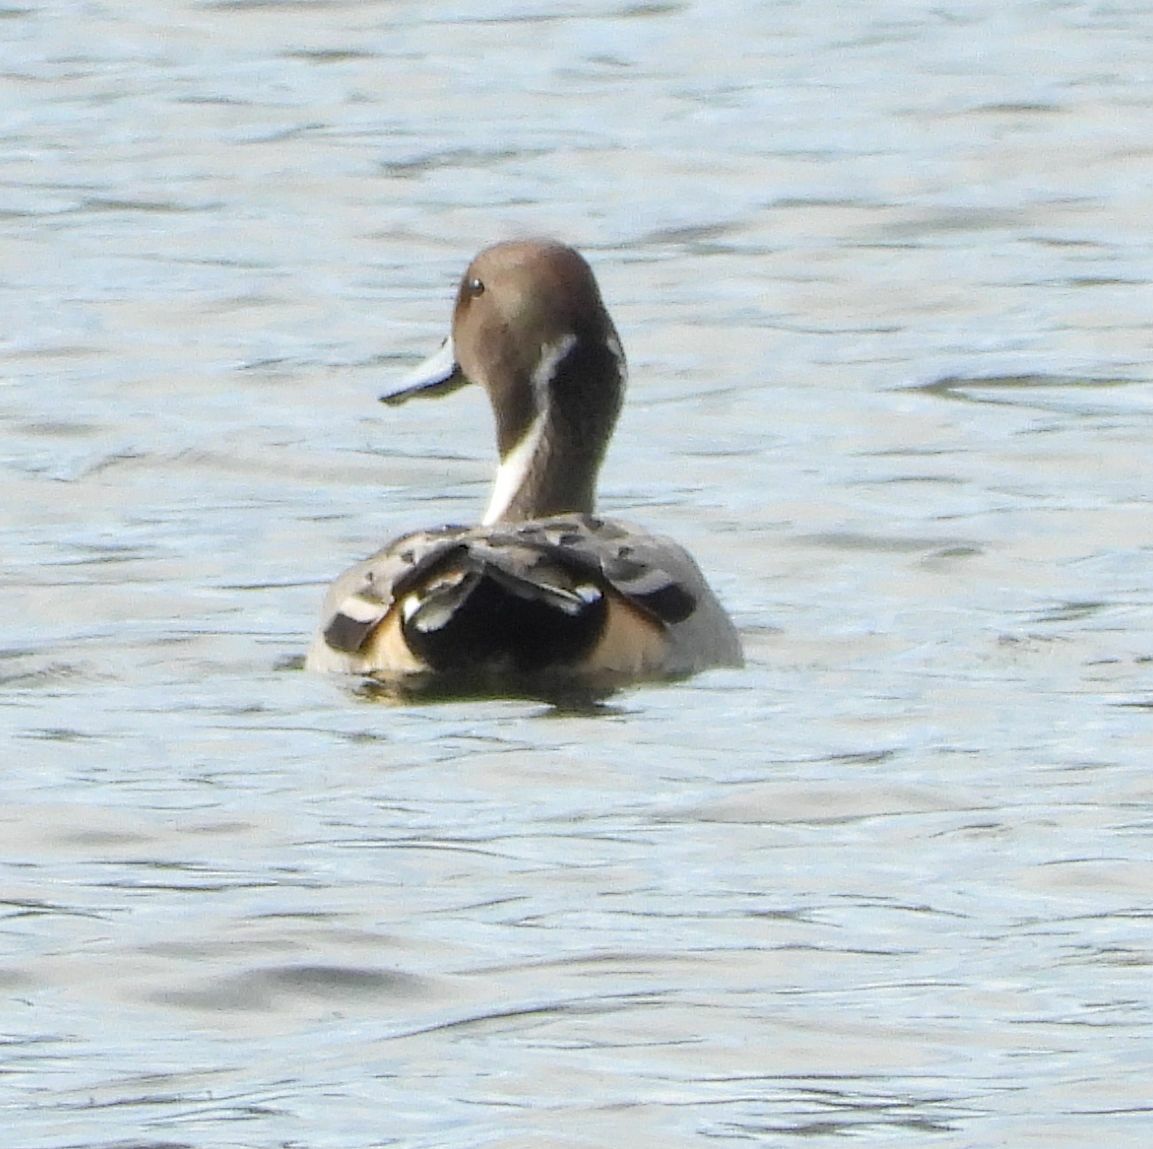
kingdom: Animalia
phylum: Chordata
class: Aves
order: Anseriformes
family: Anatidae
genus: Anas
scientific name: Anas acuta
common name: Northern pintail
